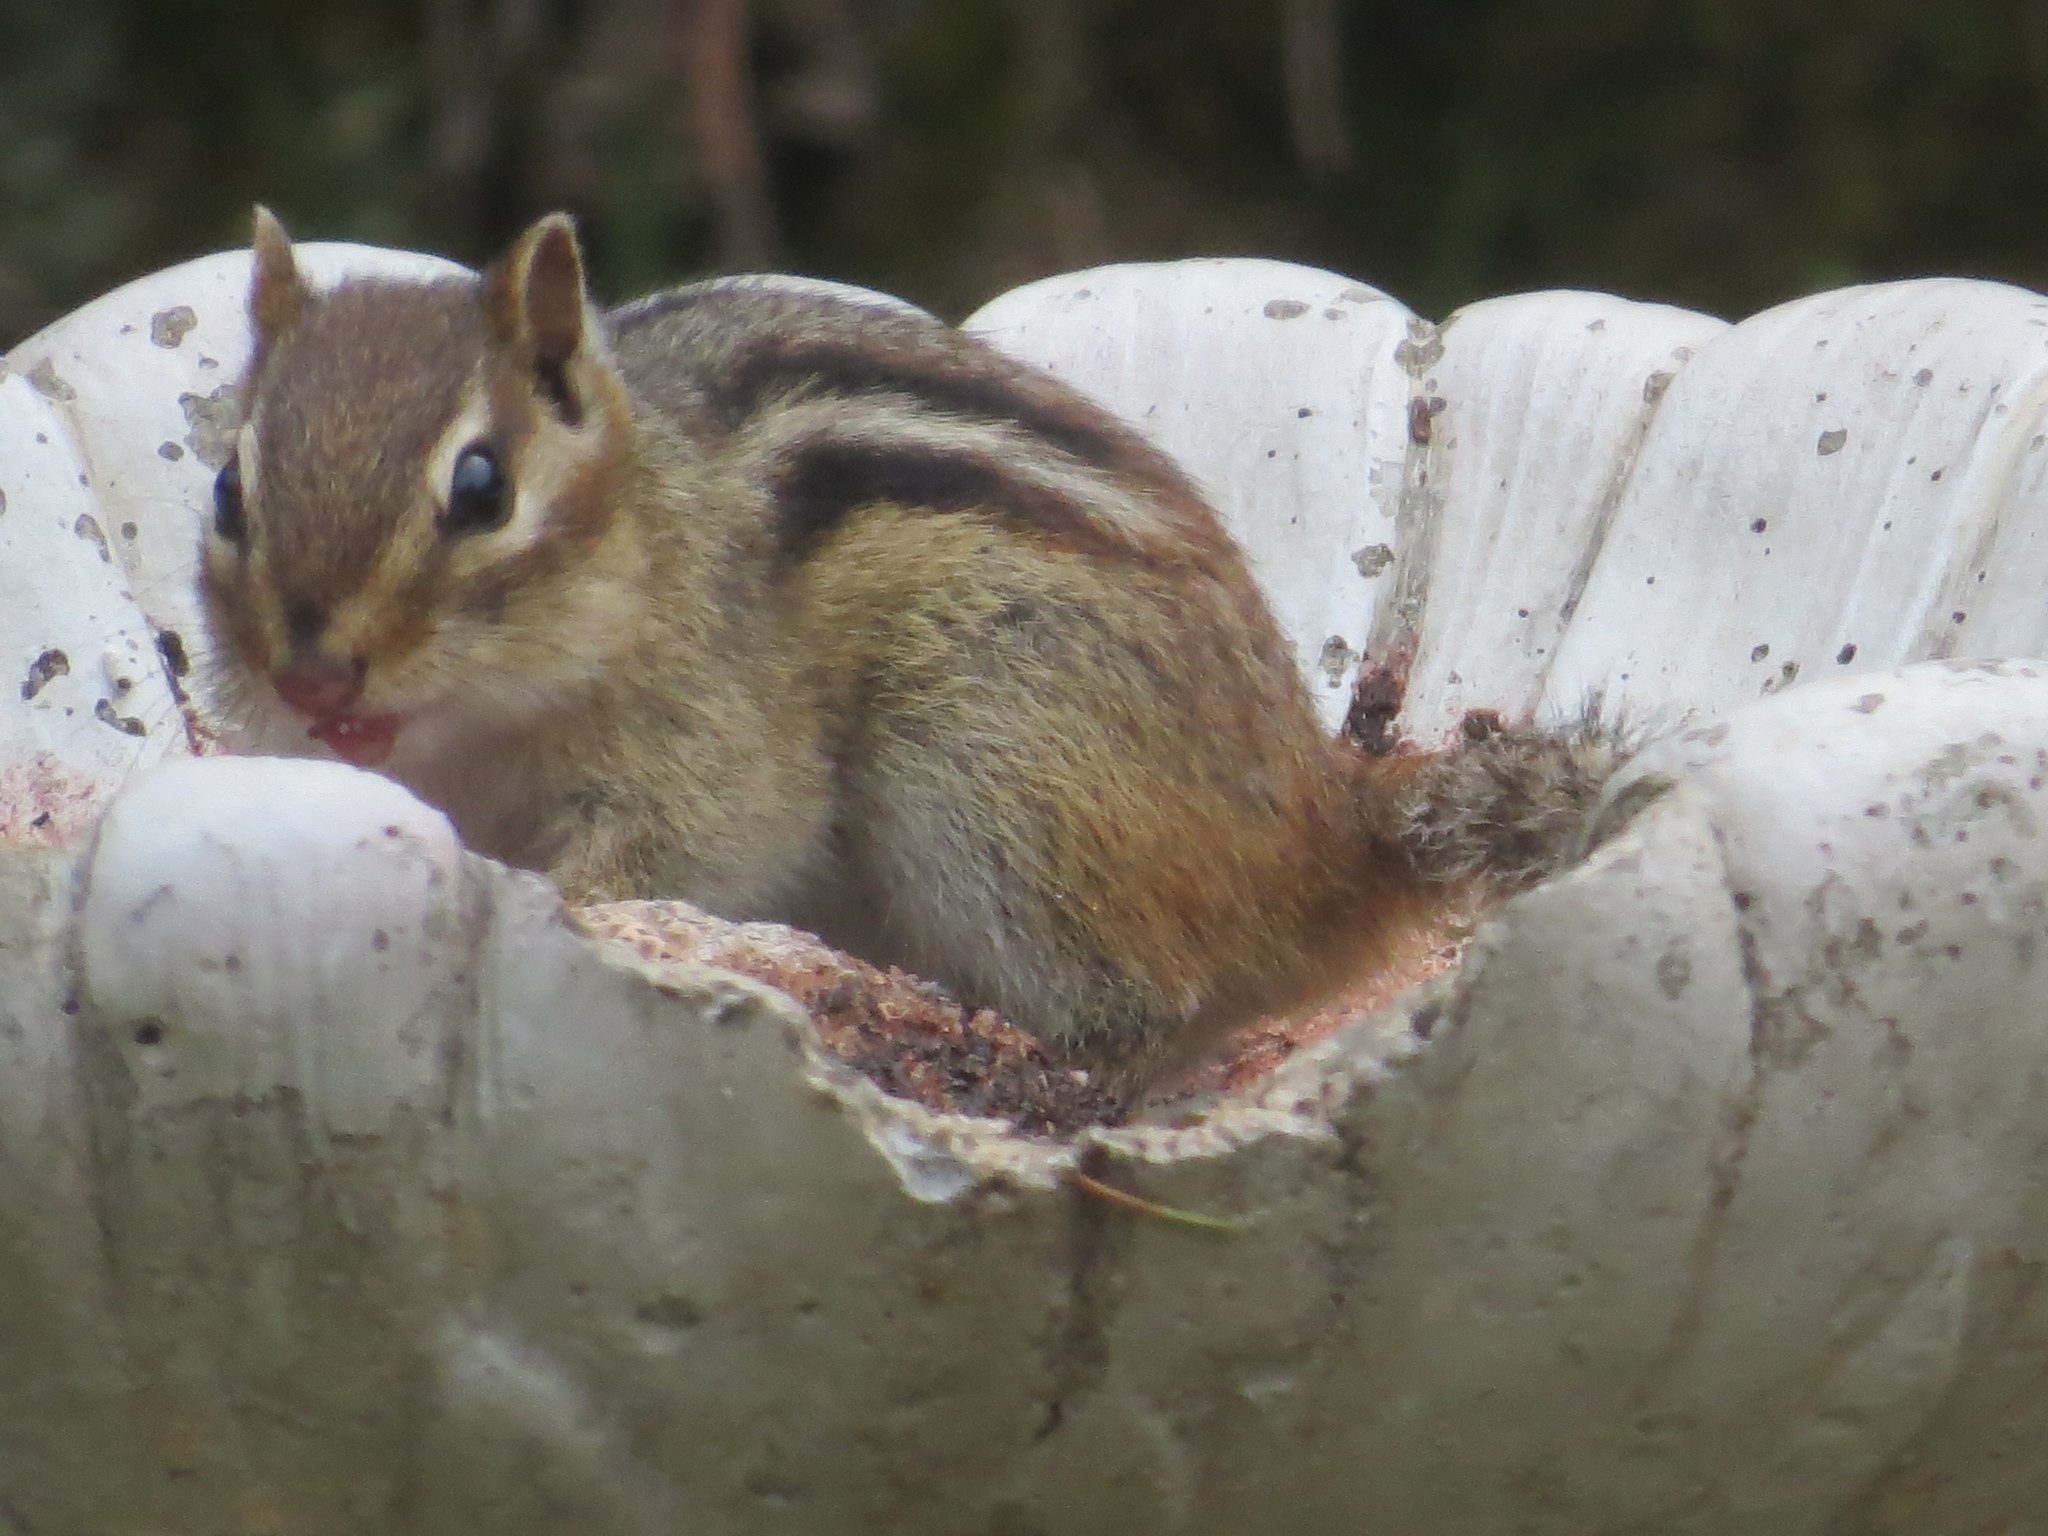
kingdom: Animalia
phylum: Chordata
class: Mammalia
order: Rodentia
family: Sciuridae
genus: Tamias
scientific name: Tamias striatus
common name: Eastern chipmunk
